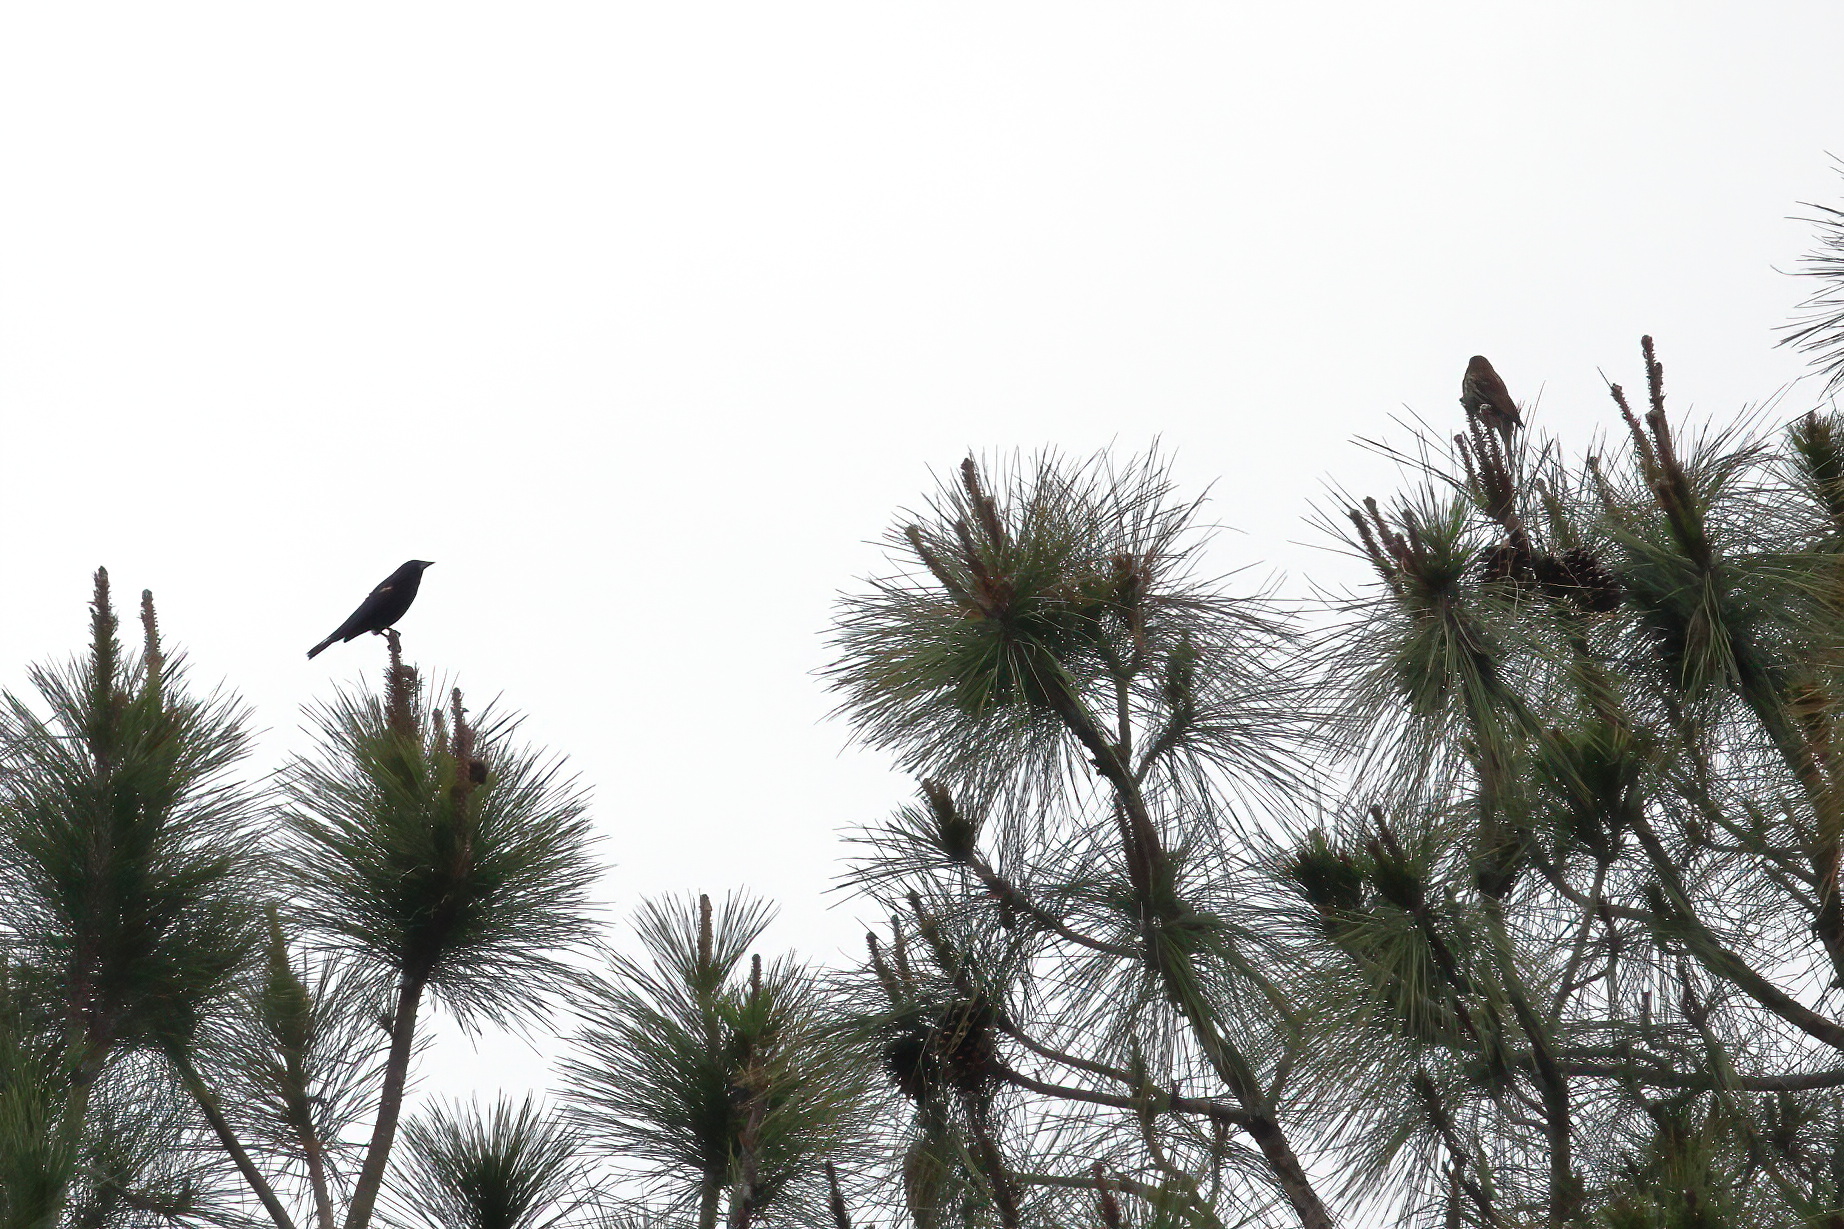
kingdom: Animalia
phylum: Chordata
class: Aves
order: Passeriformes
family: Icteridae
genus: Agelaius
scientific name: Agelaius phoeniceus
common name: Red-winged blackbird
